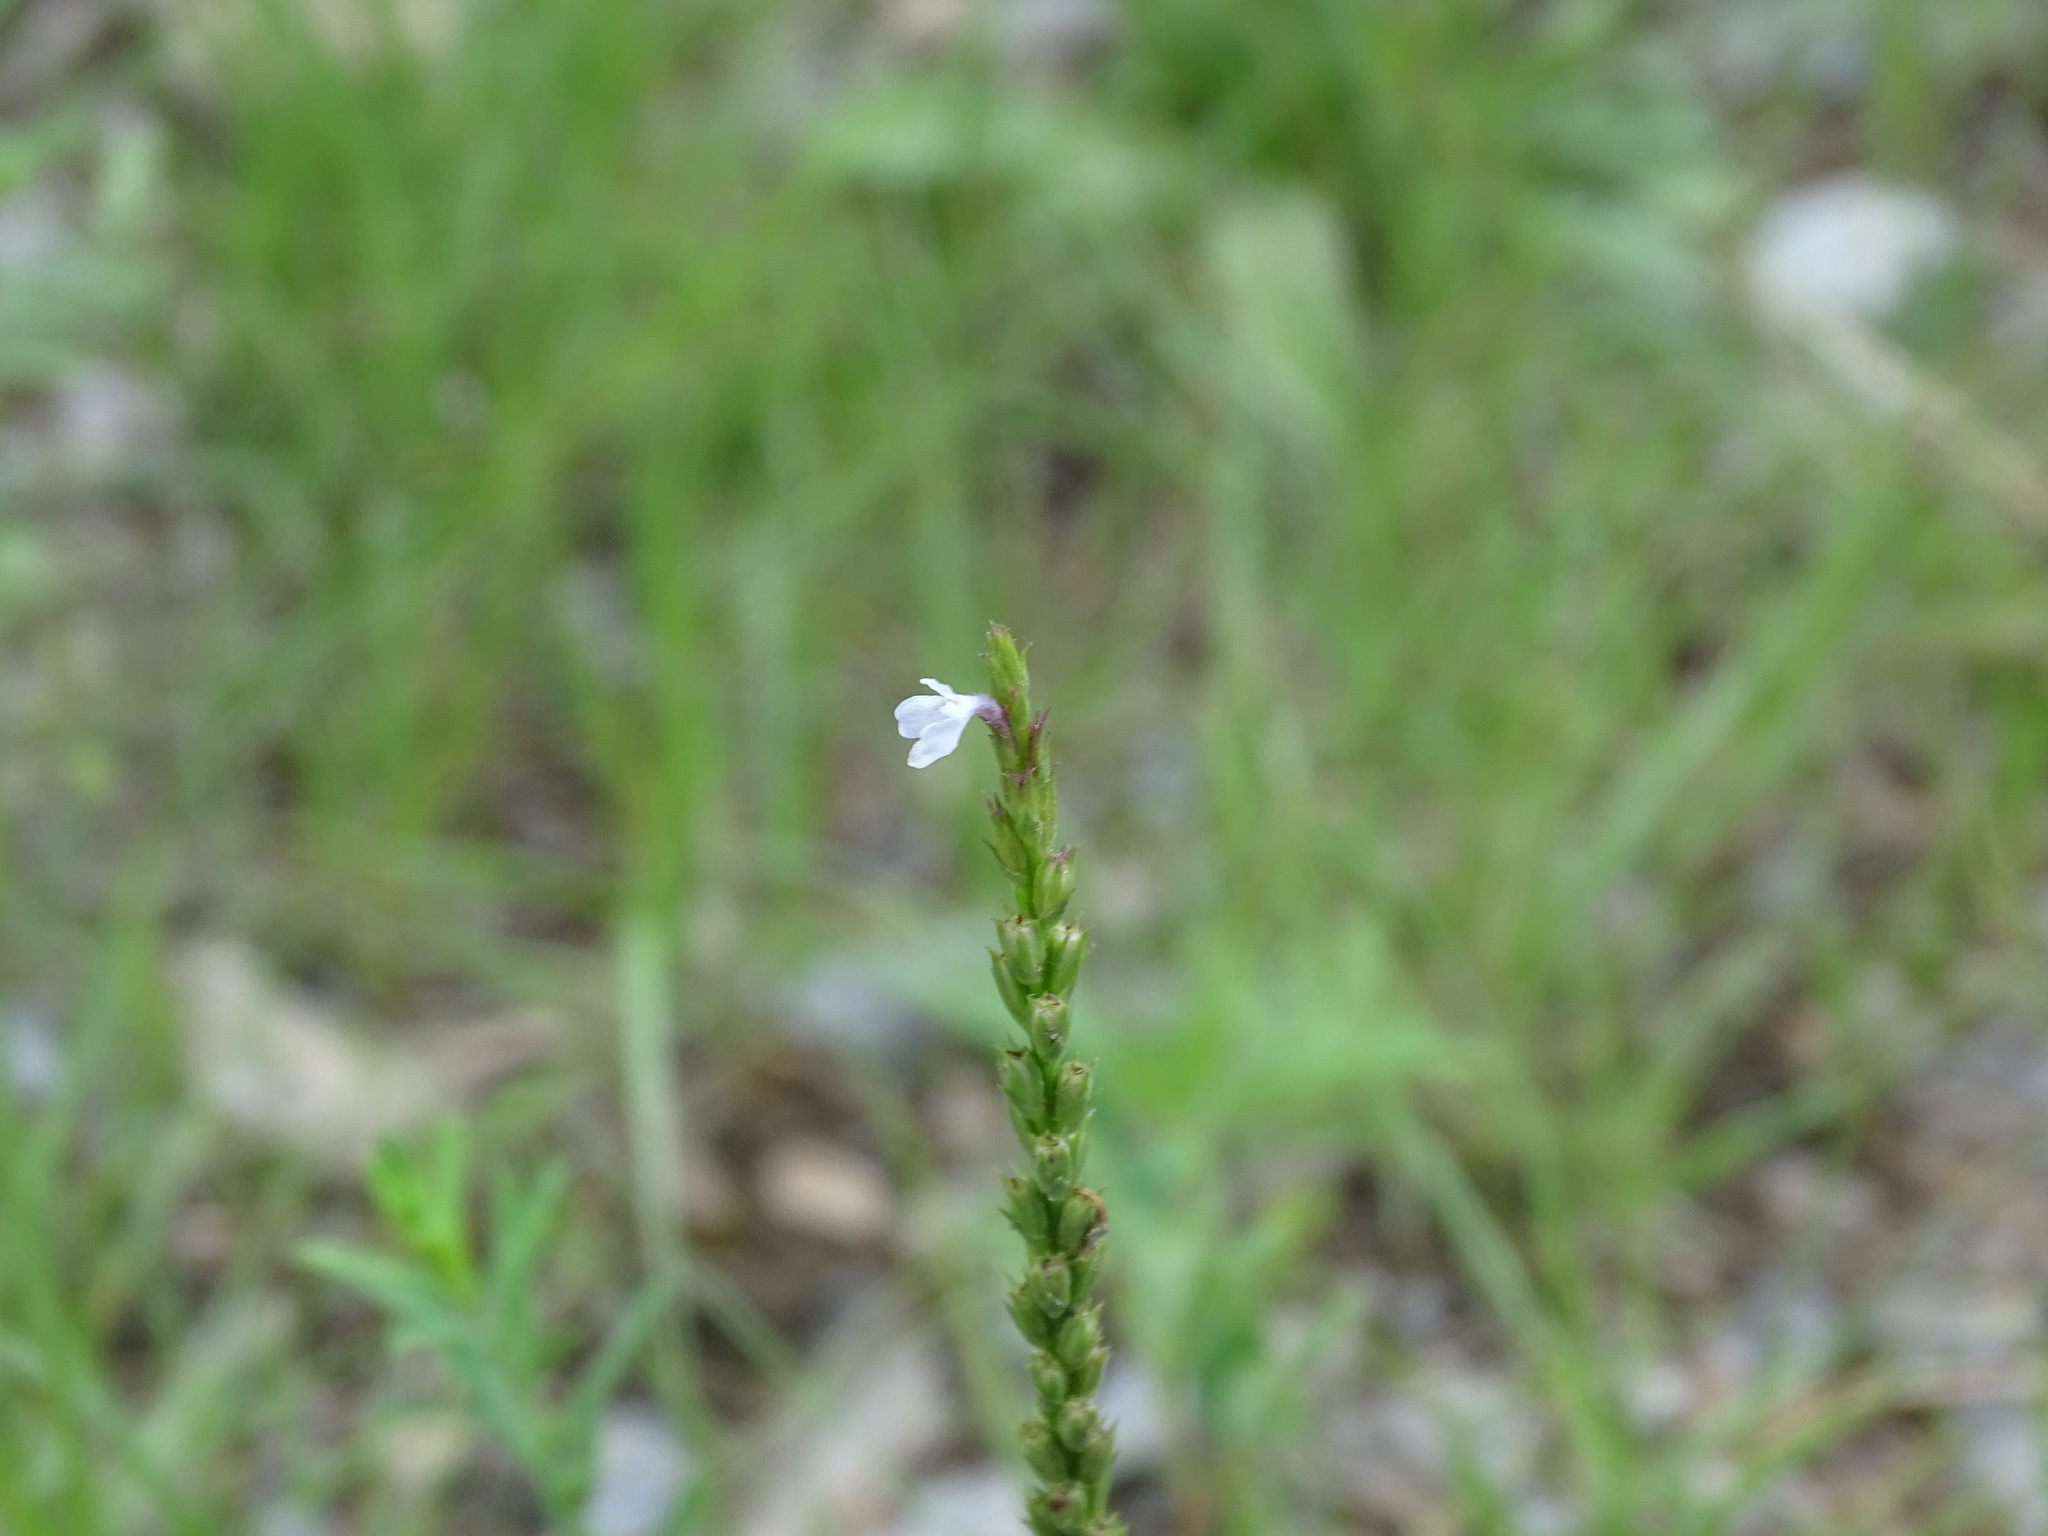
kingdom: Plantae
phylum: Tracheophyta
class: Magnoliopsida
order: Lamiales
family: Verbenaceae
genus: Verbena
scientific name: Verbena simplex
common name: Narrow-leaf vervain
